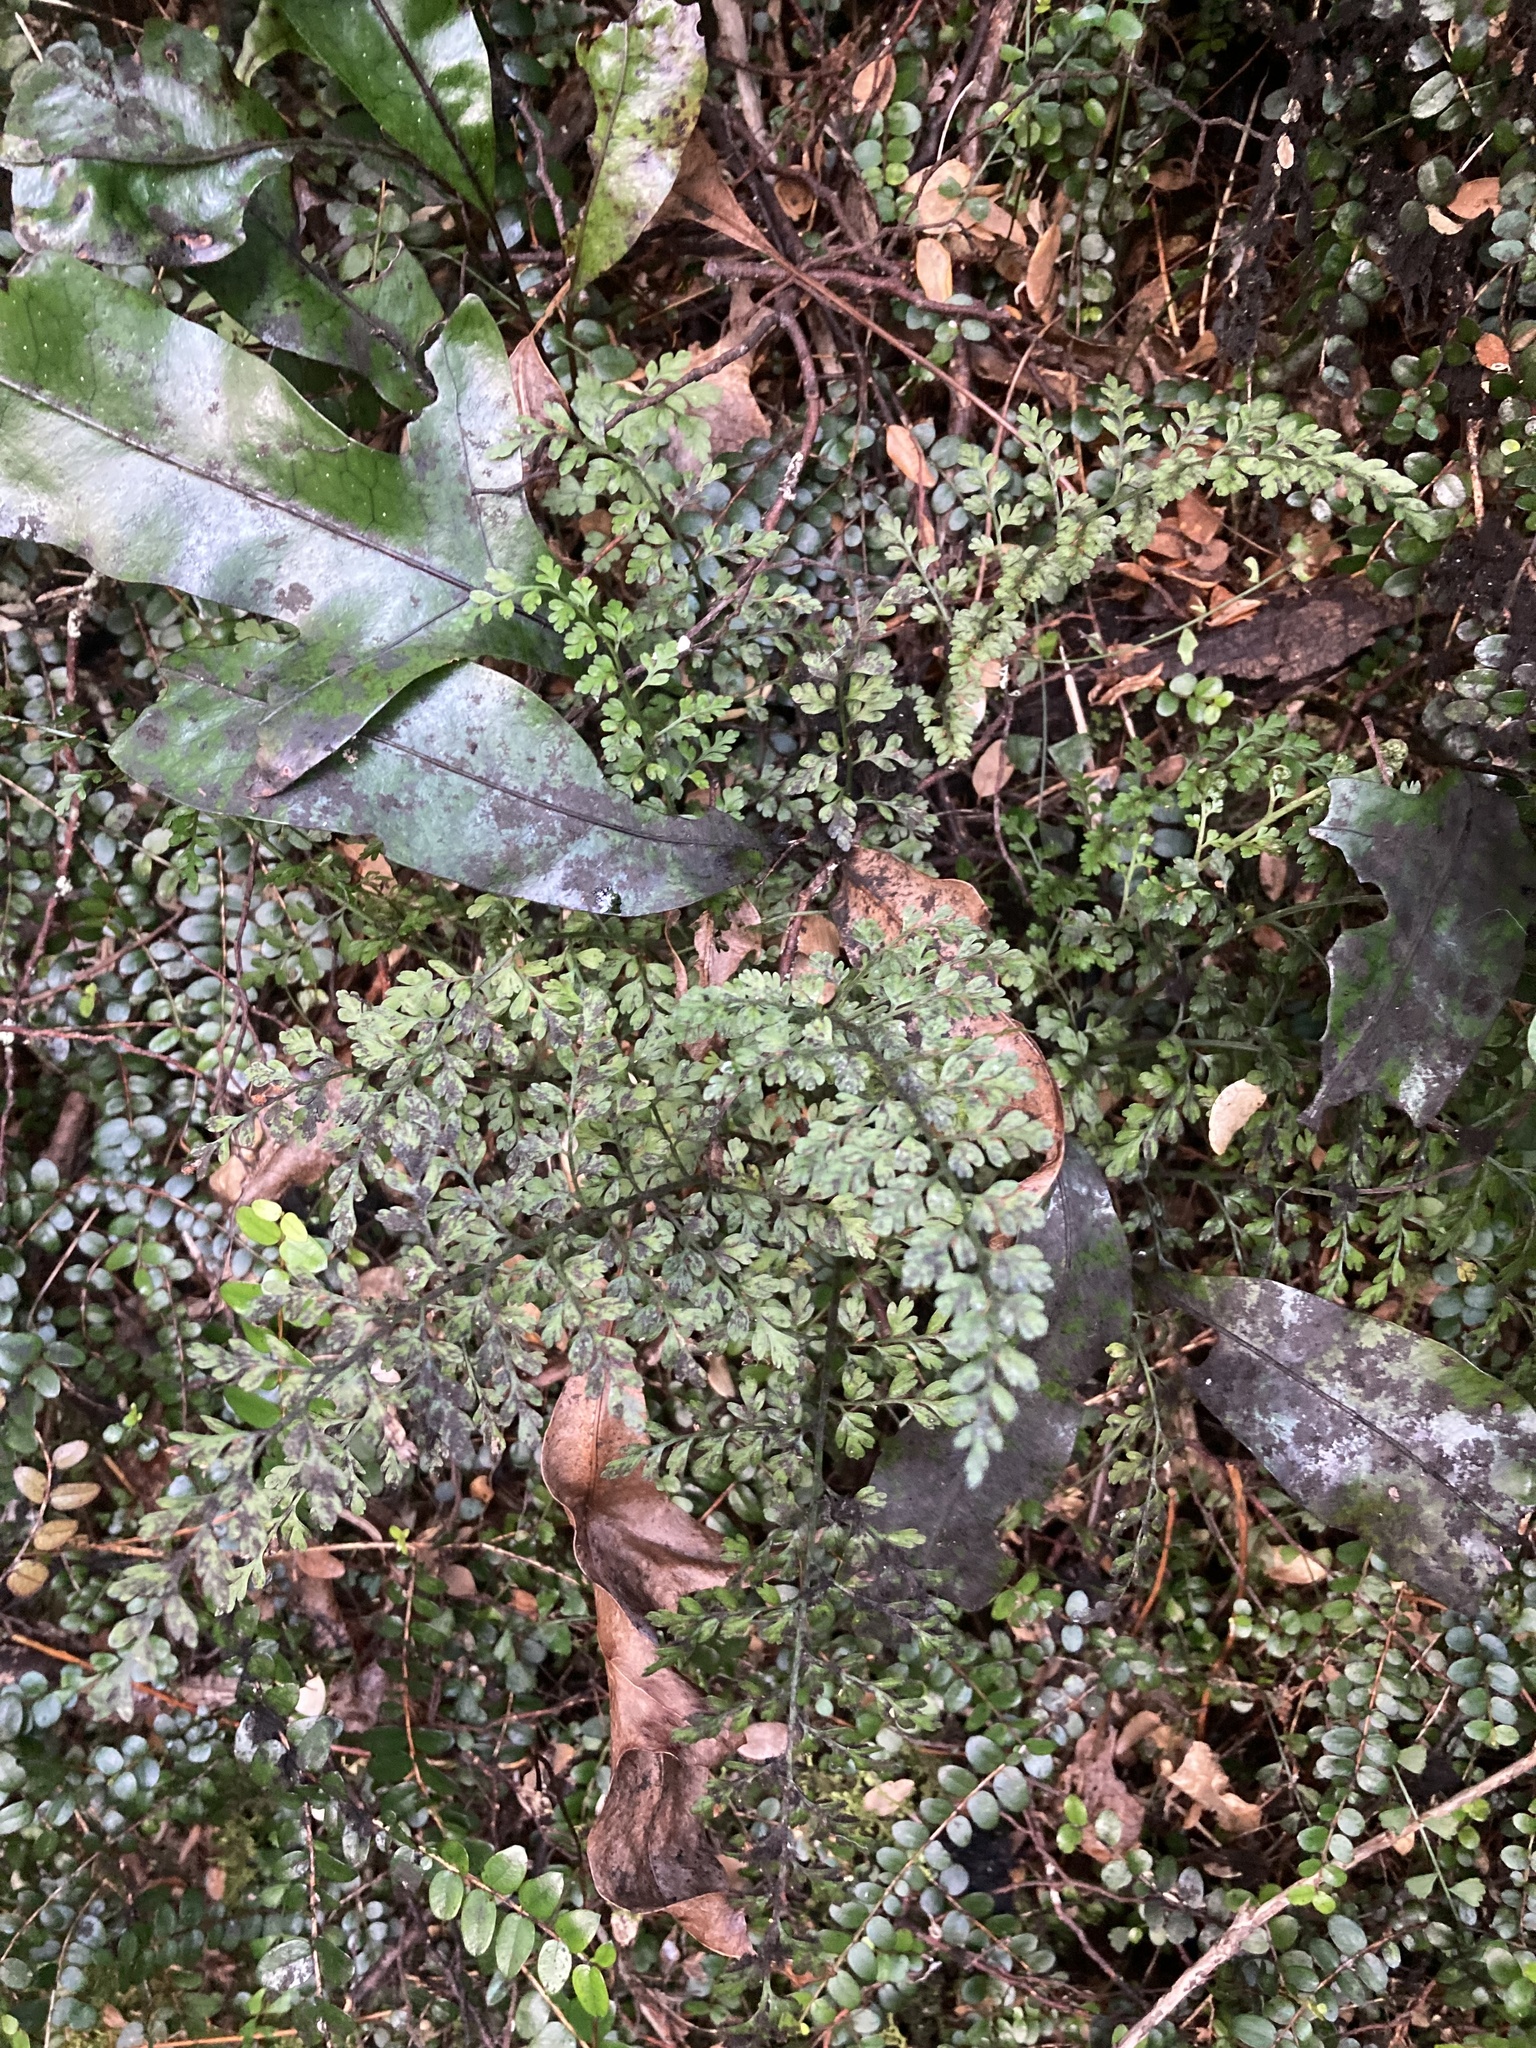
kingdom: Plantae
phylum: Tracheophyta
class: Polypodiopsida
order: Polypodiales
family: Aspleniaceae
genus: Asplenium
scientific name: Asplenium hookerianum
